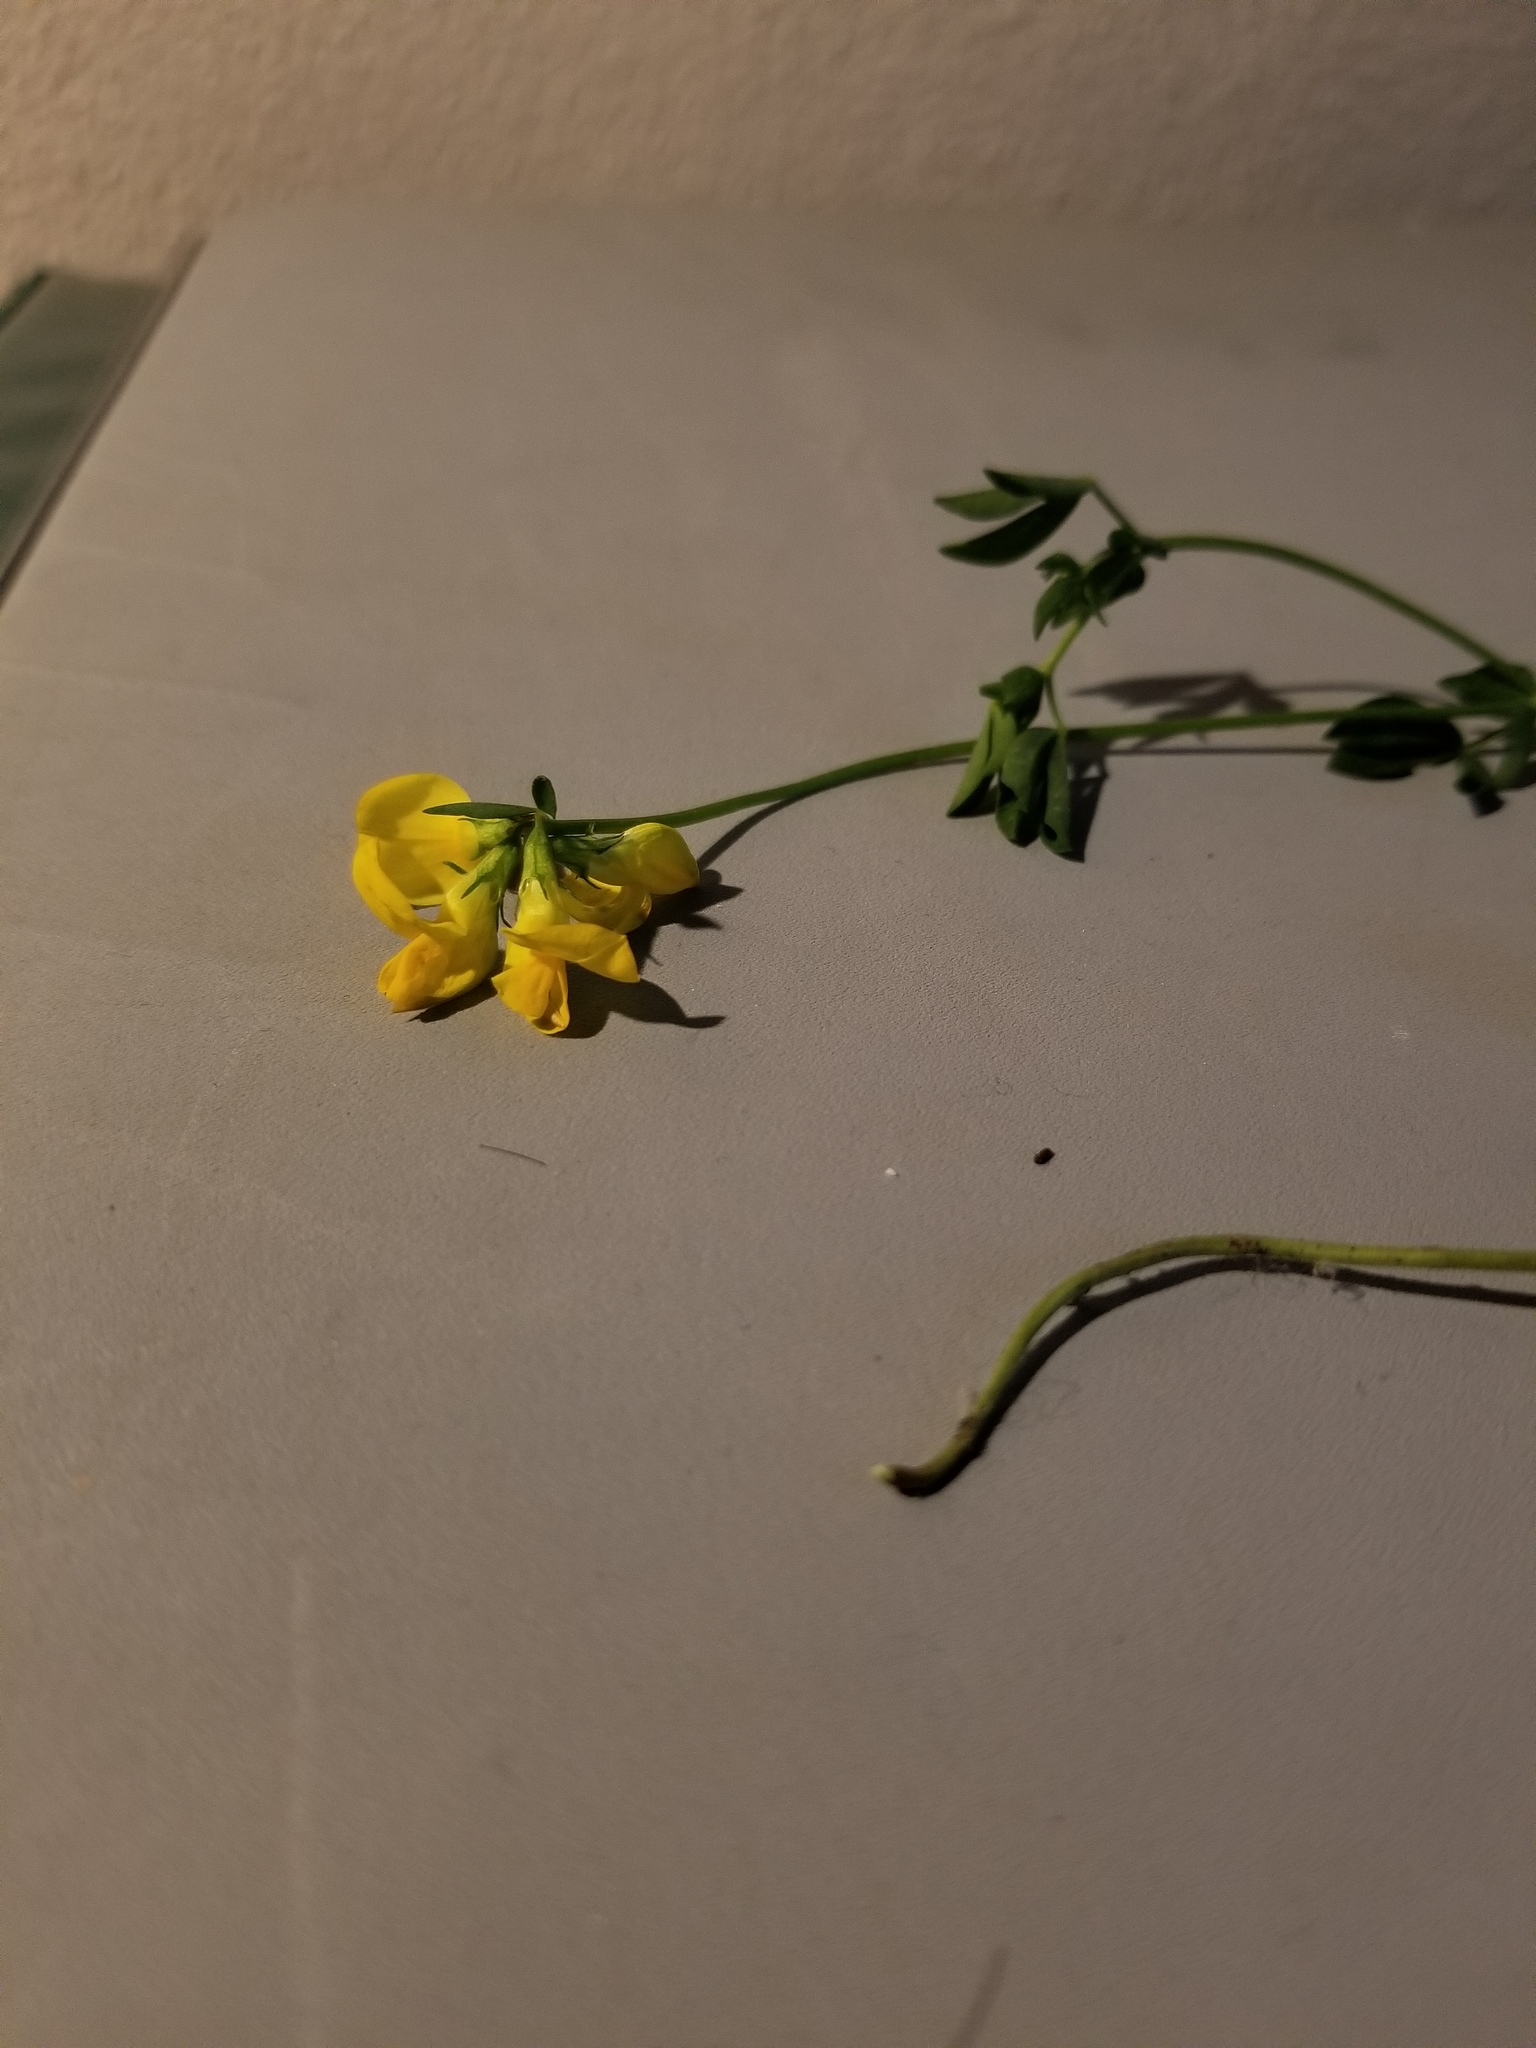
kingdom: Plantae
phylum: Tracheophyta
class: Magnoliopsida
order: Fabales
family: Fabaceae
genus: Lotus
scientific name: Lotus corniculatus
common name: Common bird's-foot-trefoil
